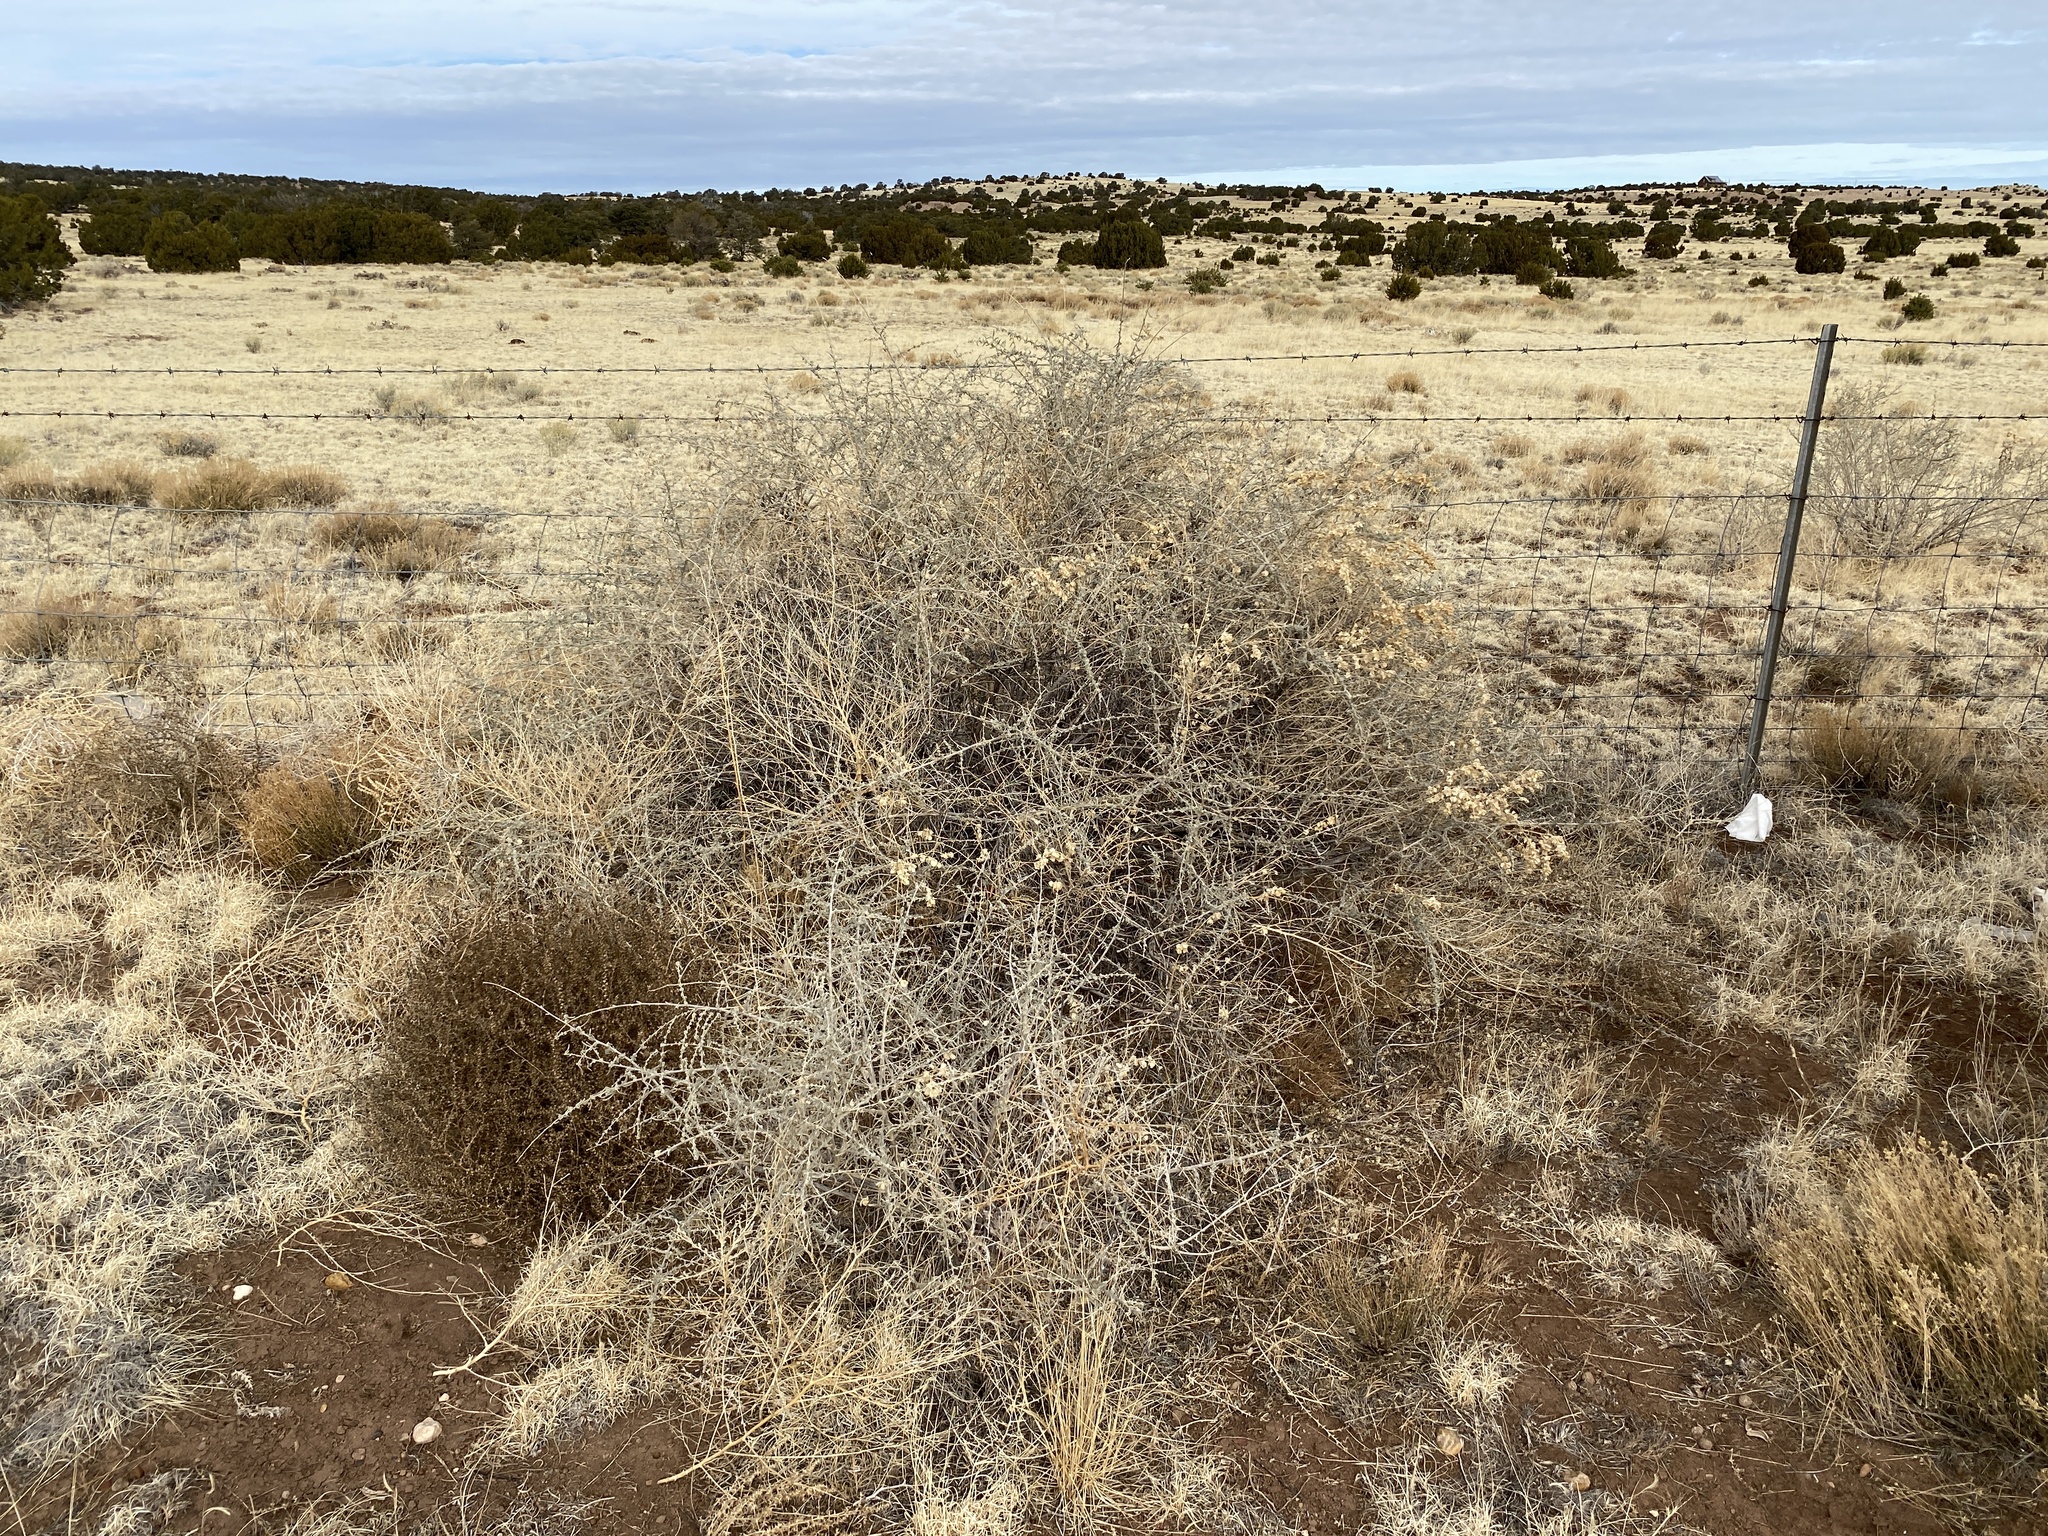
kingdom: Plantae
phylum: Tracheophyta
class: Magnoliopsida
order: Caryophyllales
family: Amaranthaceae
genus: Atriplex
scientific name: Atriplex canescens
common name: Four-wing saltbush
